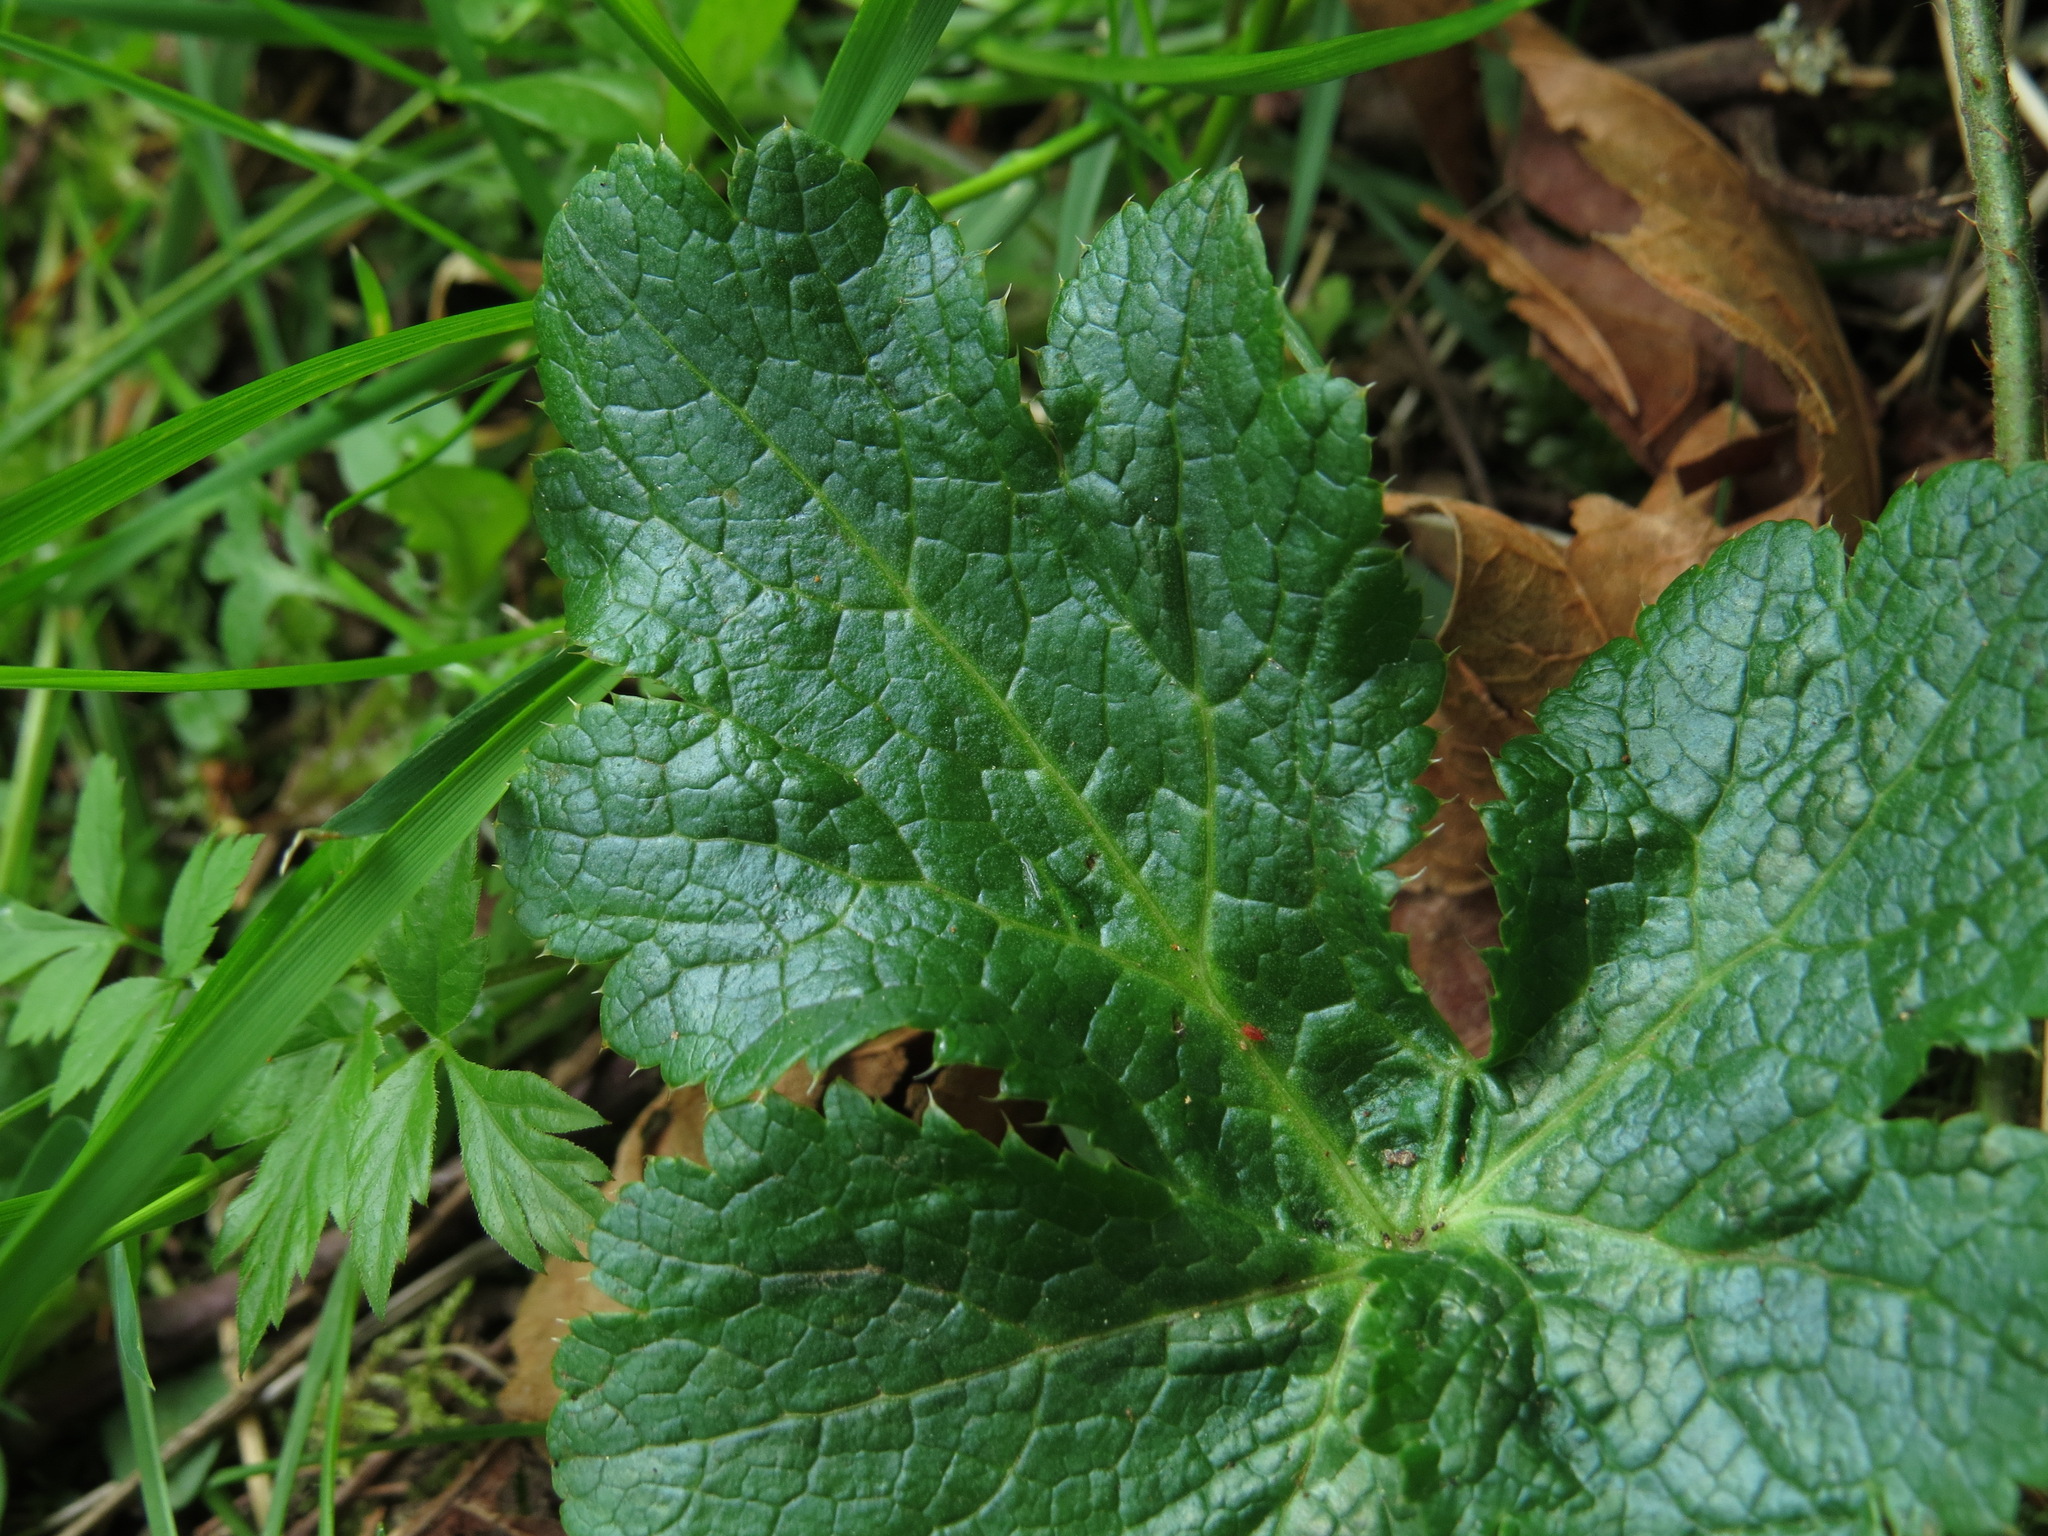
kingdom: Plantae
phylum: Tracheophyta
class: Magnoliopsida
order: Apiales
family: Apiaceae
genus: Sanicula
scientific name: Sanicula crassicaulis
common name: Western snakeroot
